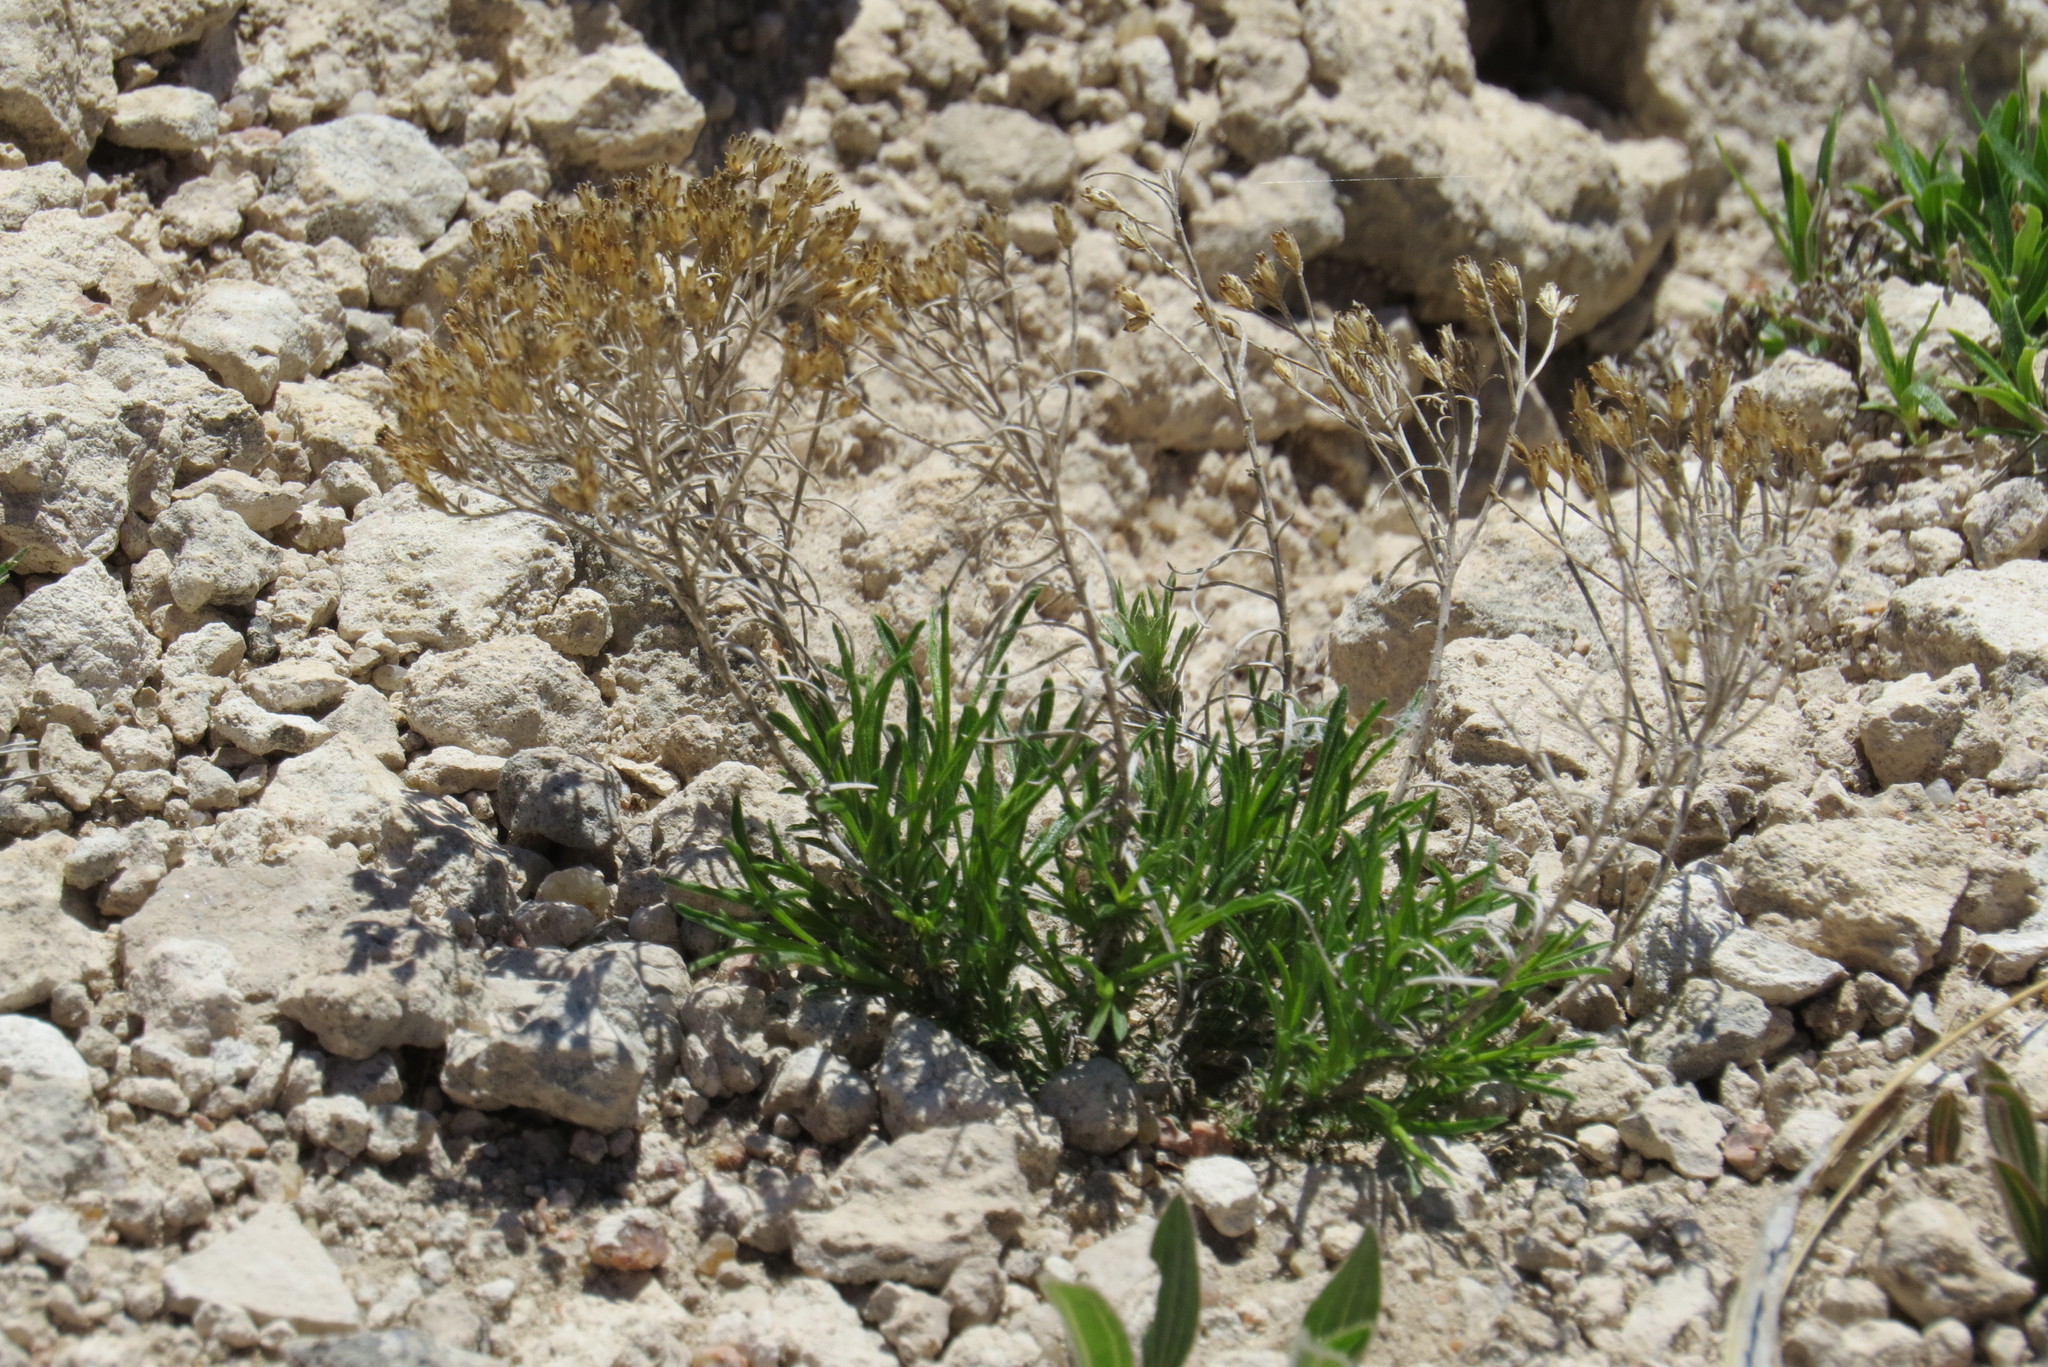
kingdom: Plantae
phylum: Tracheophyta
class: Magnoliopsida
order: Asterales
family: Asteraceae
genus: Gutierrezia
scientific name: Gutierrezia sarothrae
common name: Broom snakeweed
